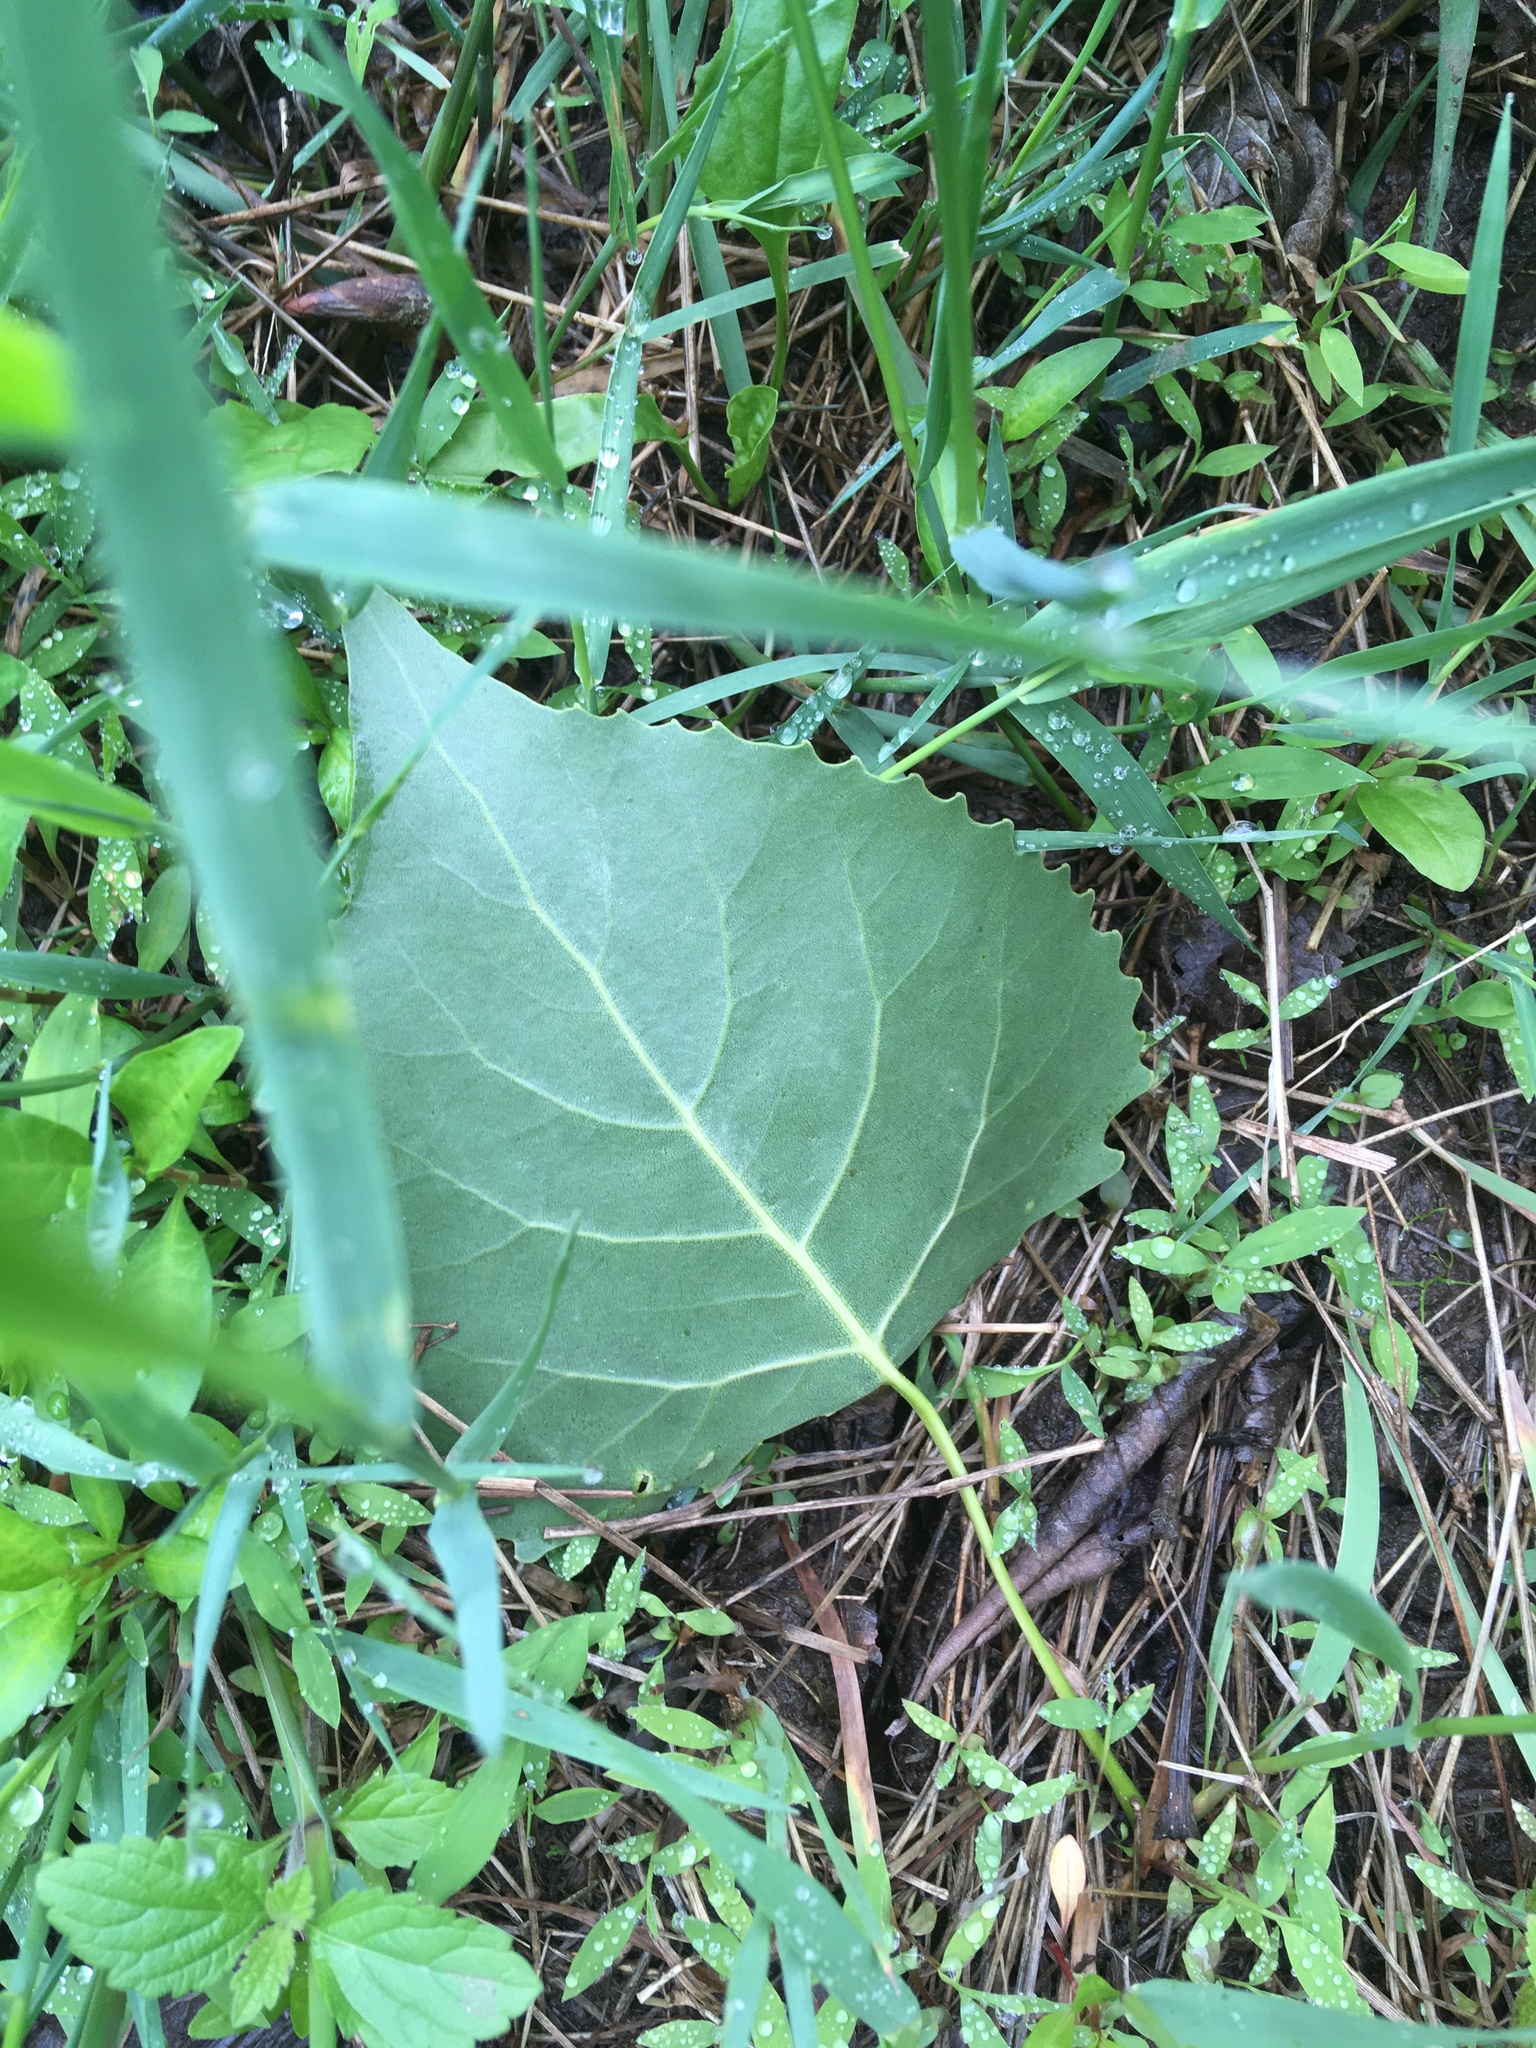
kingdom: Plantae
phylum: Tracheophyta
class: Magnoliopsida
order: Malpighiales
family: Salicaceae
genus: Populus
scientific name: Populus deltoides
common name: Eastern cottonwood
